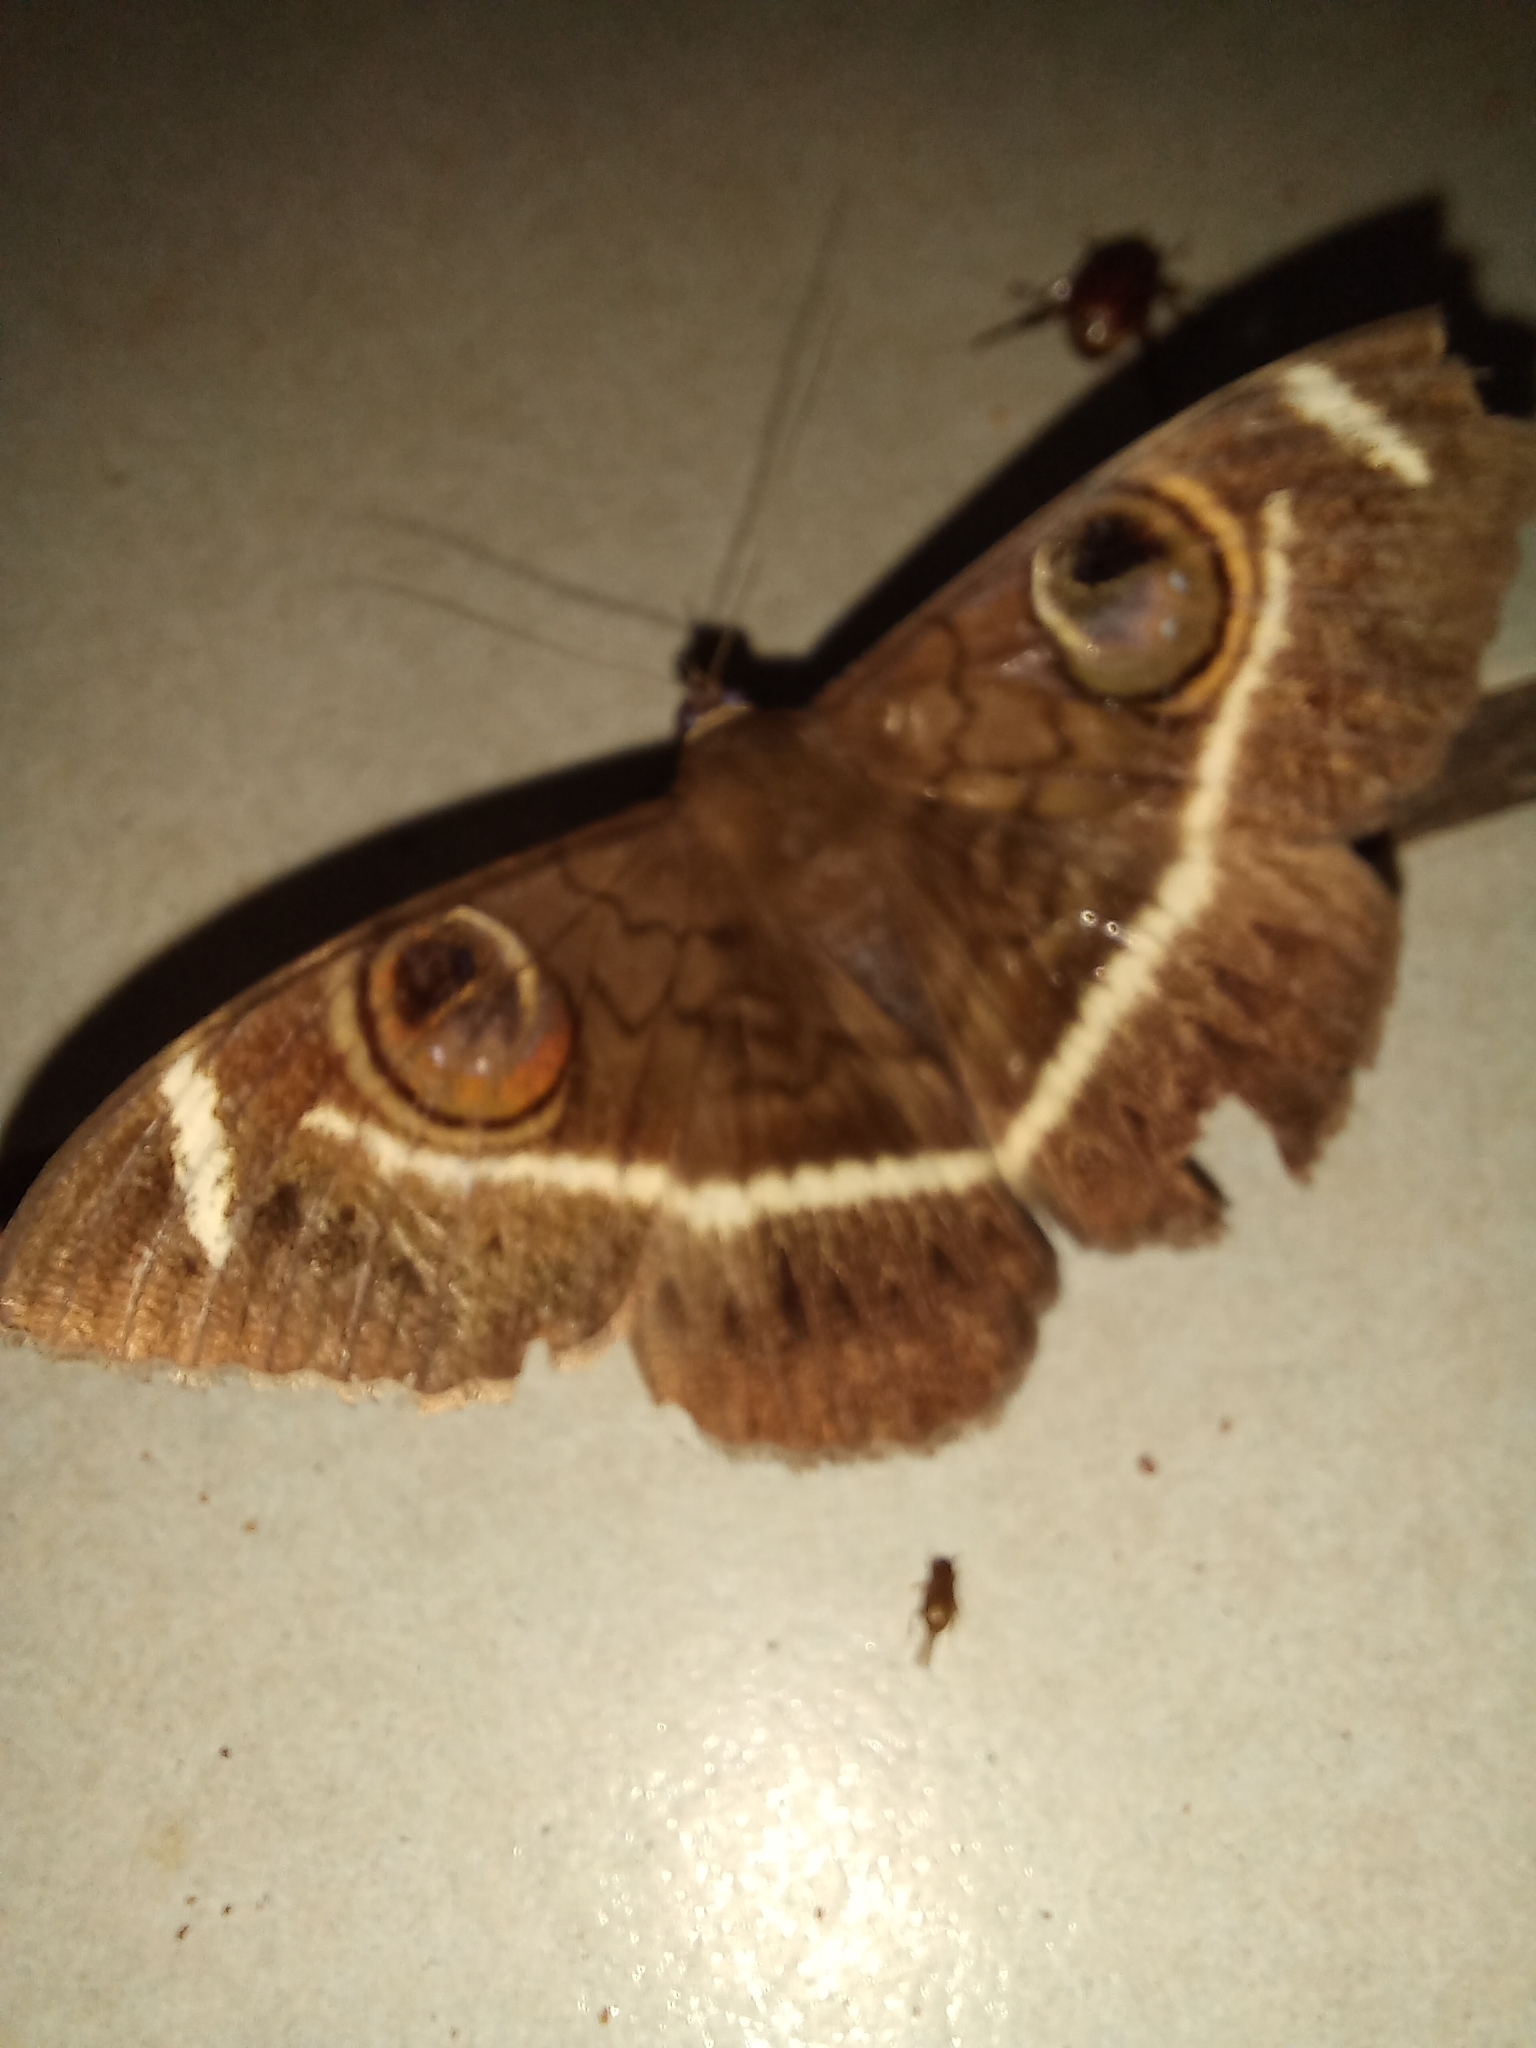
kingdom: Animalia
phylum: Arthropoda
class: Insecta
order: Lepidoptera
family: Erebidae
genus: Cyligramma
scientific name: Cyligramma latona
